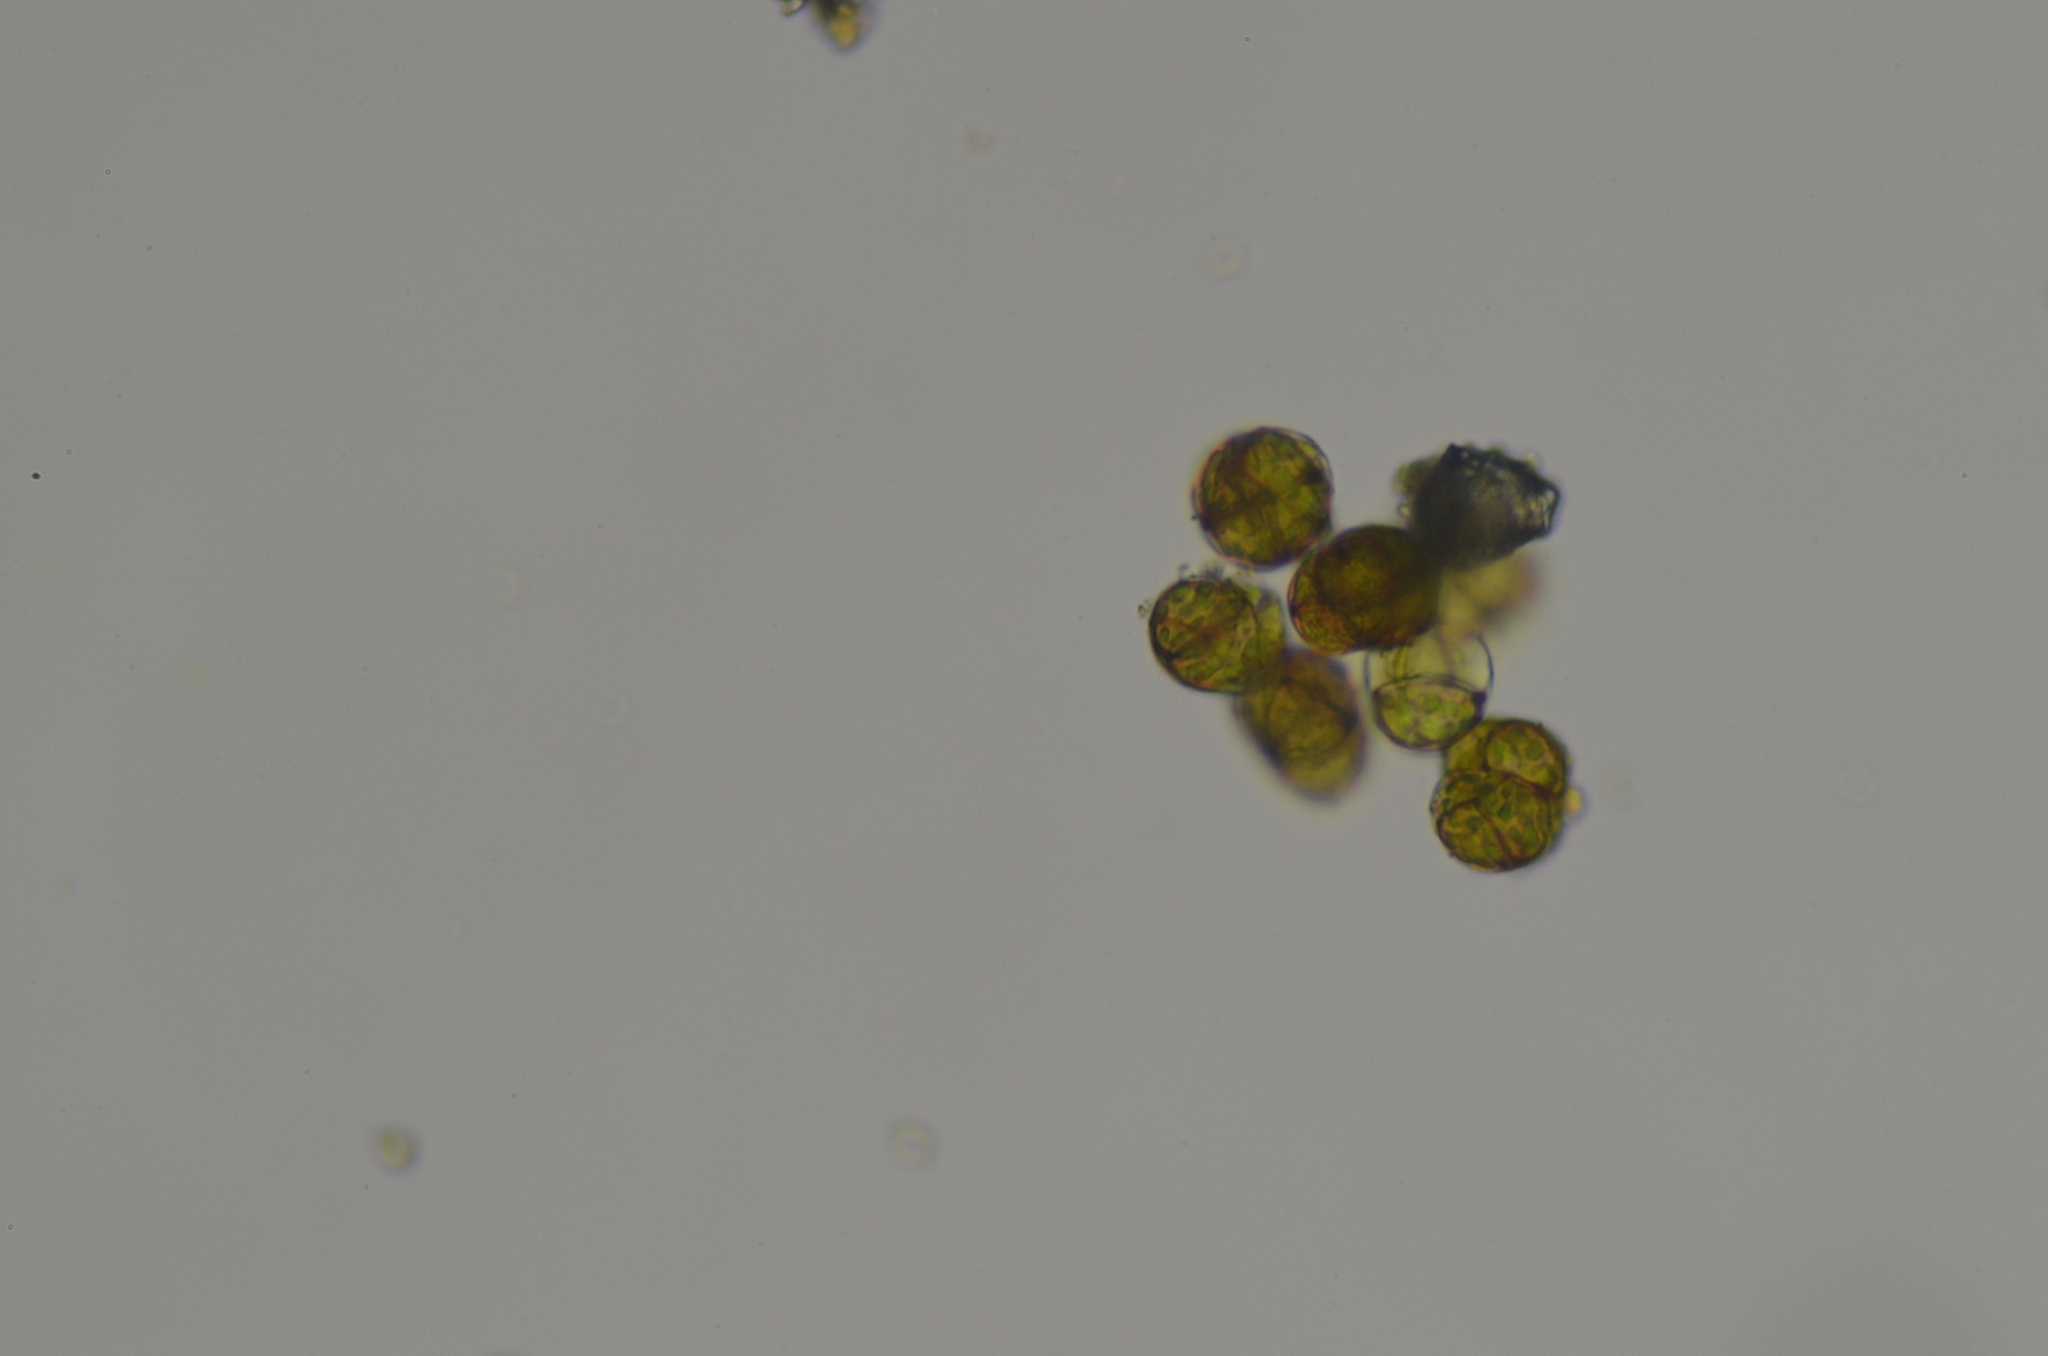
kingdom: Plantae
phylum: Bryophyta
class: Bryopsida
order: Pottiales
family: Pottiaceae
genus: Syntrichia
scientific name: Syntrichia latifolia
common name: Water screw-moss
